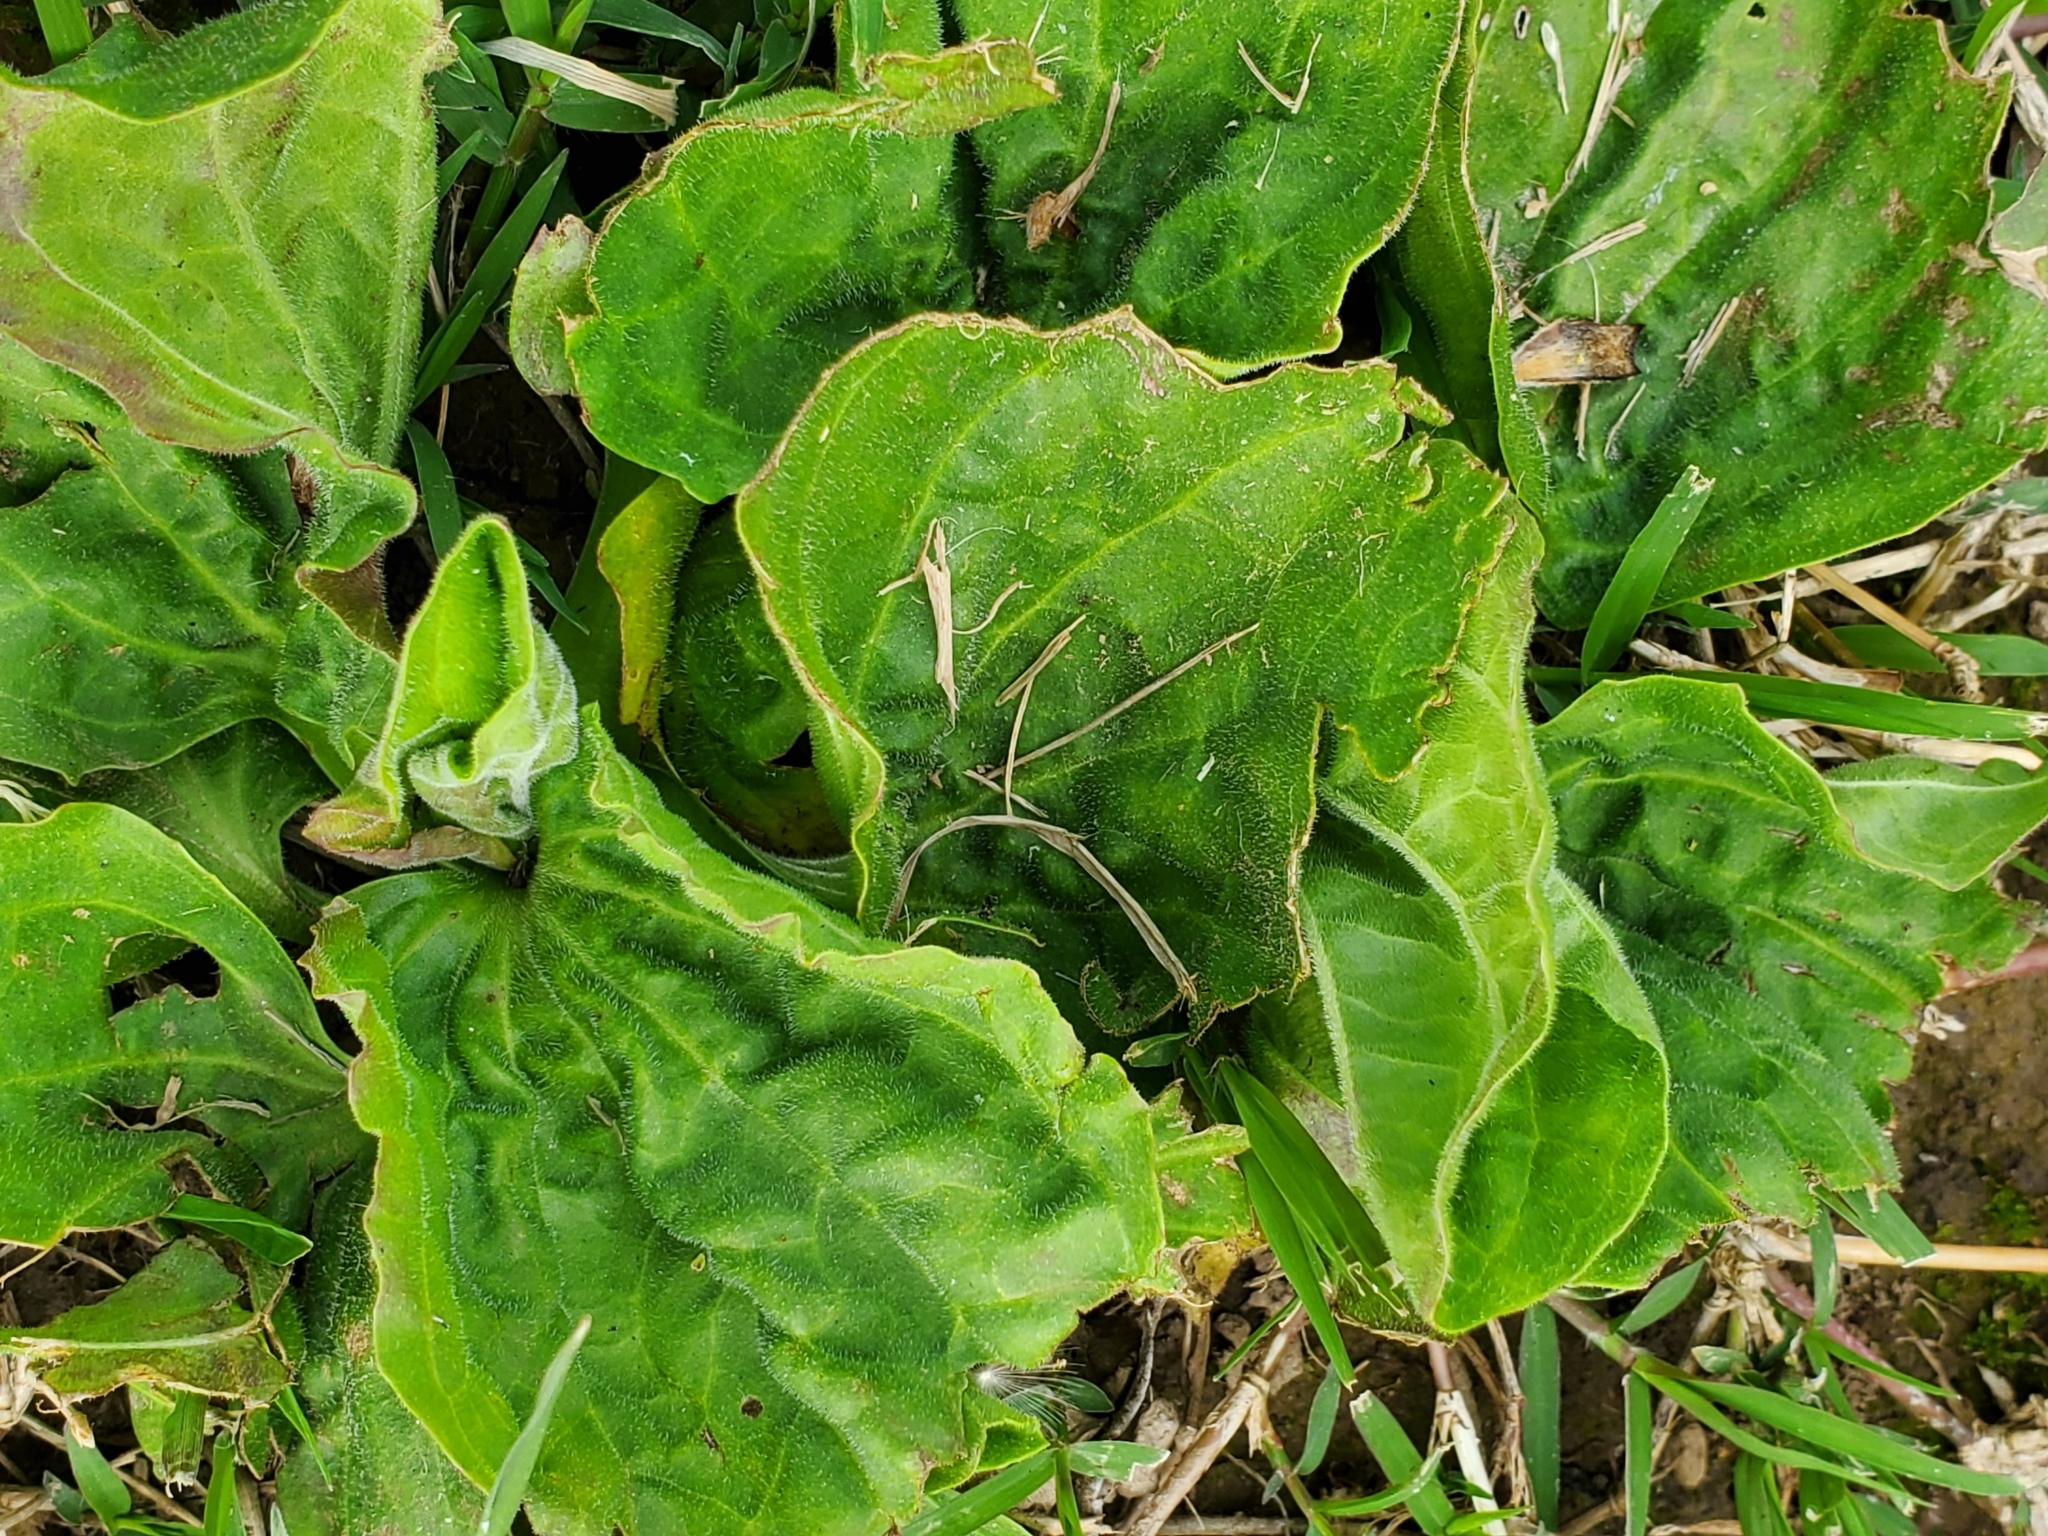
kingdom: Plantae
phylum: Tracheophyta
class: Magnoliopsida
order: Lamiales
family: Plantaginaceae
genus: Plantago
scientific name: Plantago major
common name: Common plantain
